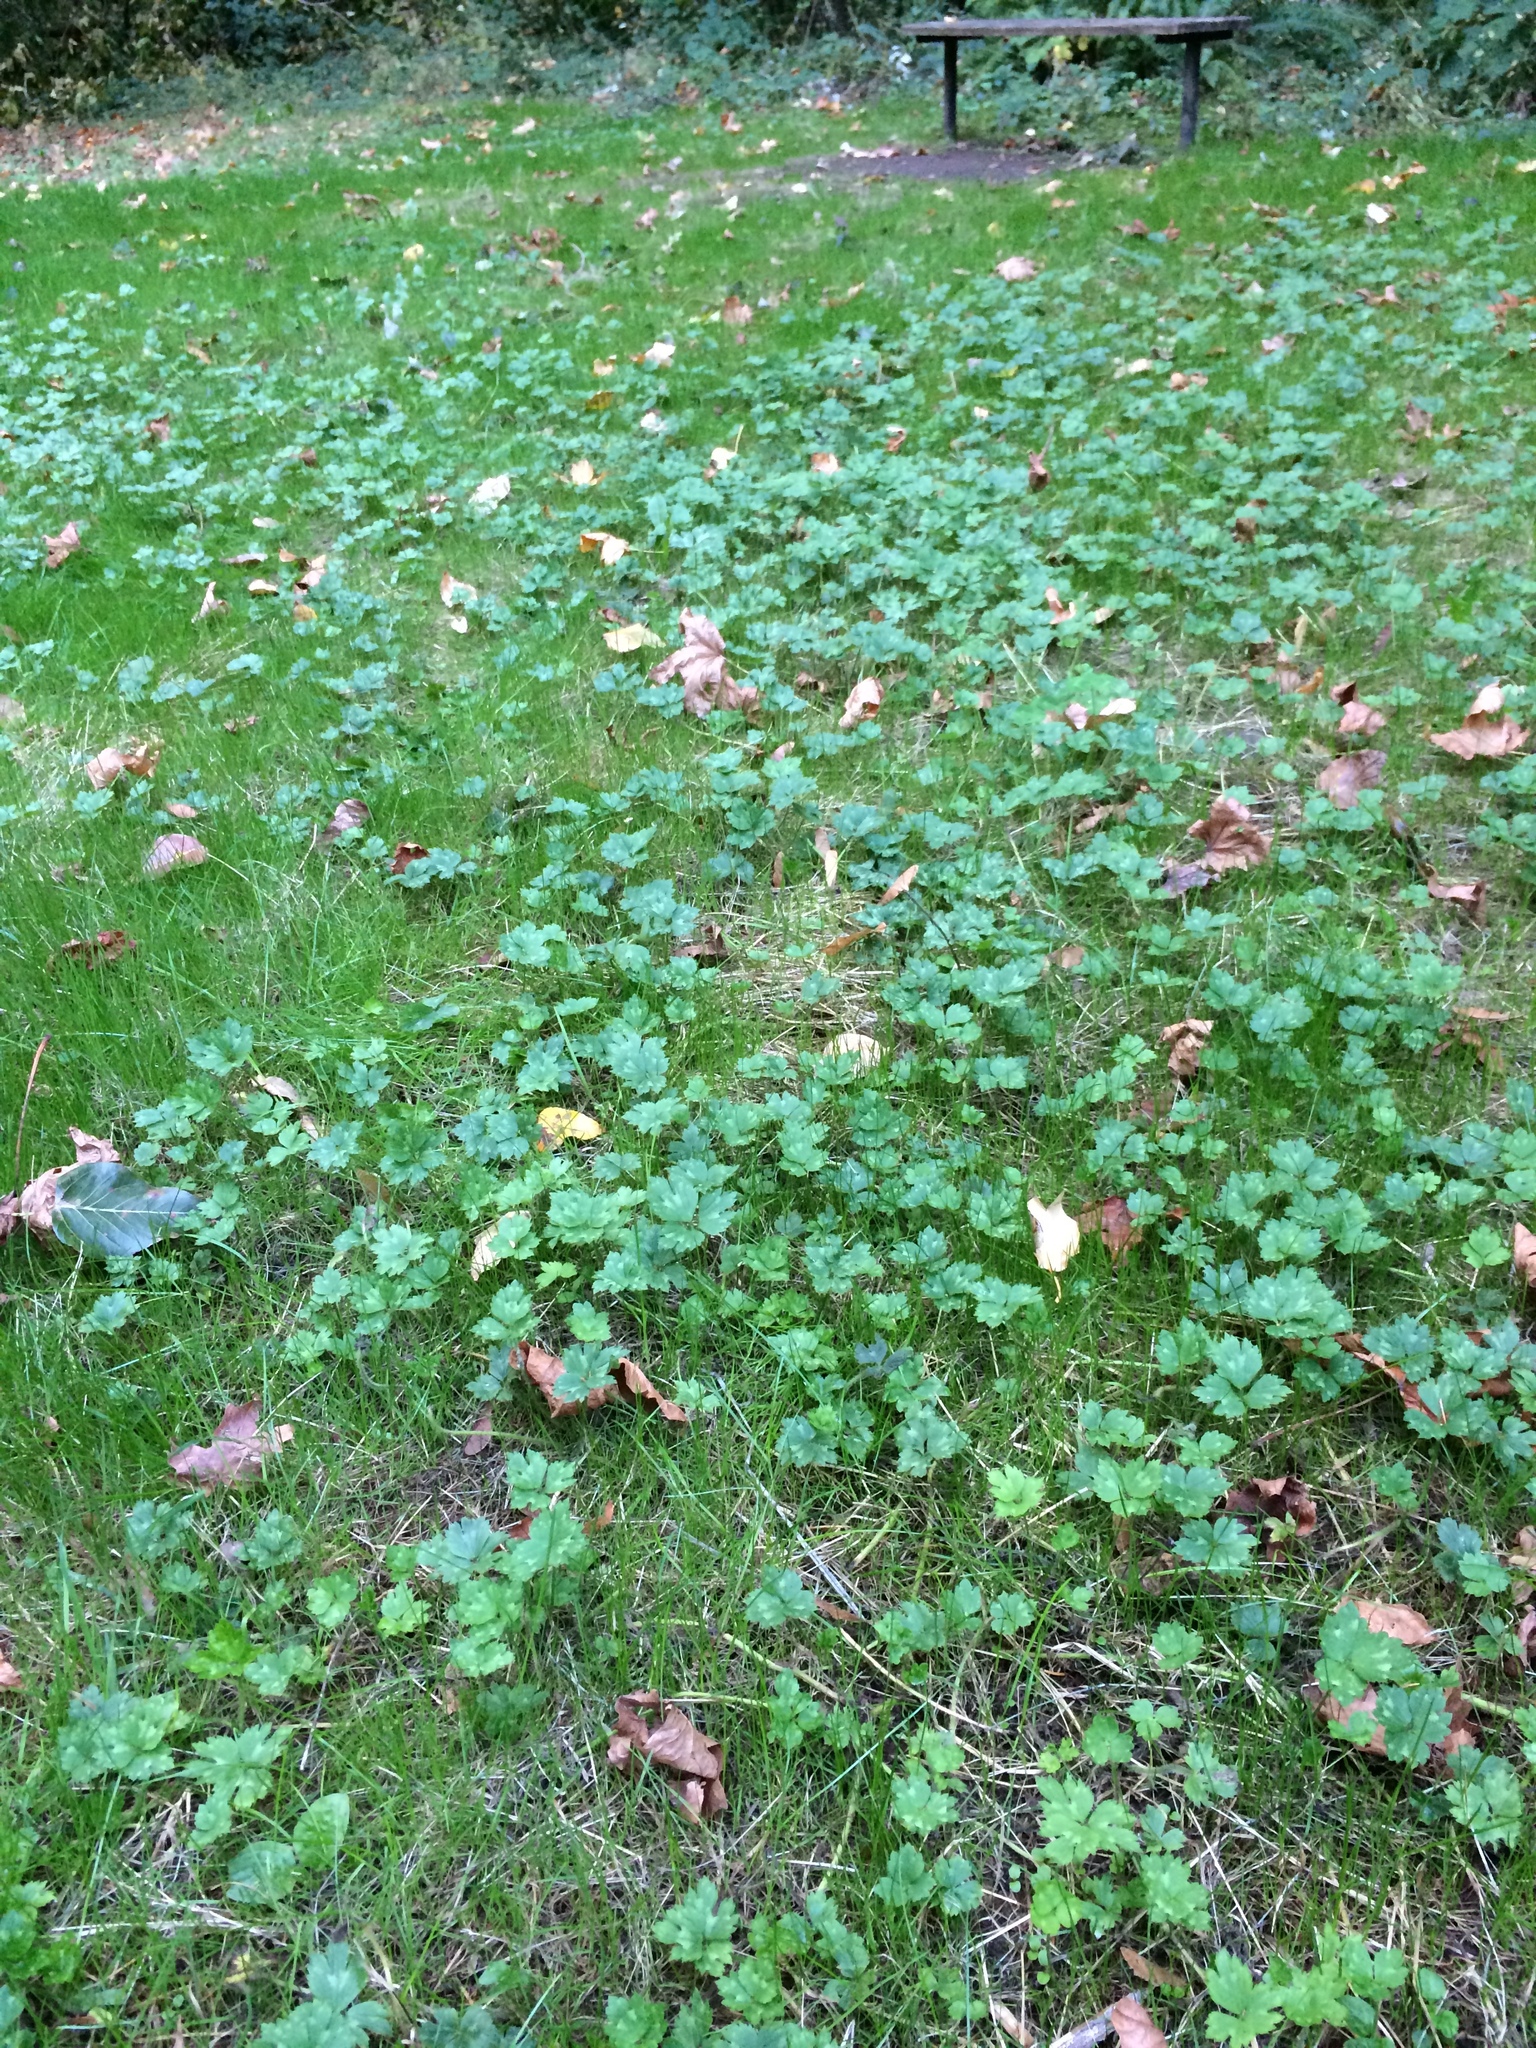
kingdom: Plantae
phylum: Tracheophyta
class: Magnoliopsida
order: Ranunculales
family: Ranunculaceae
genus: Ranunculus
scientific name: Ranunculus repens
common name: Creeping buttercup
